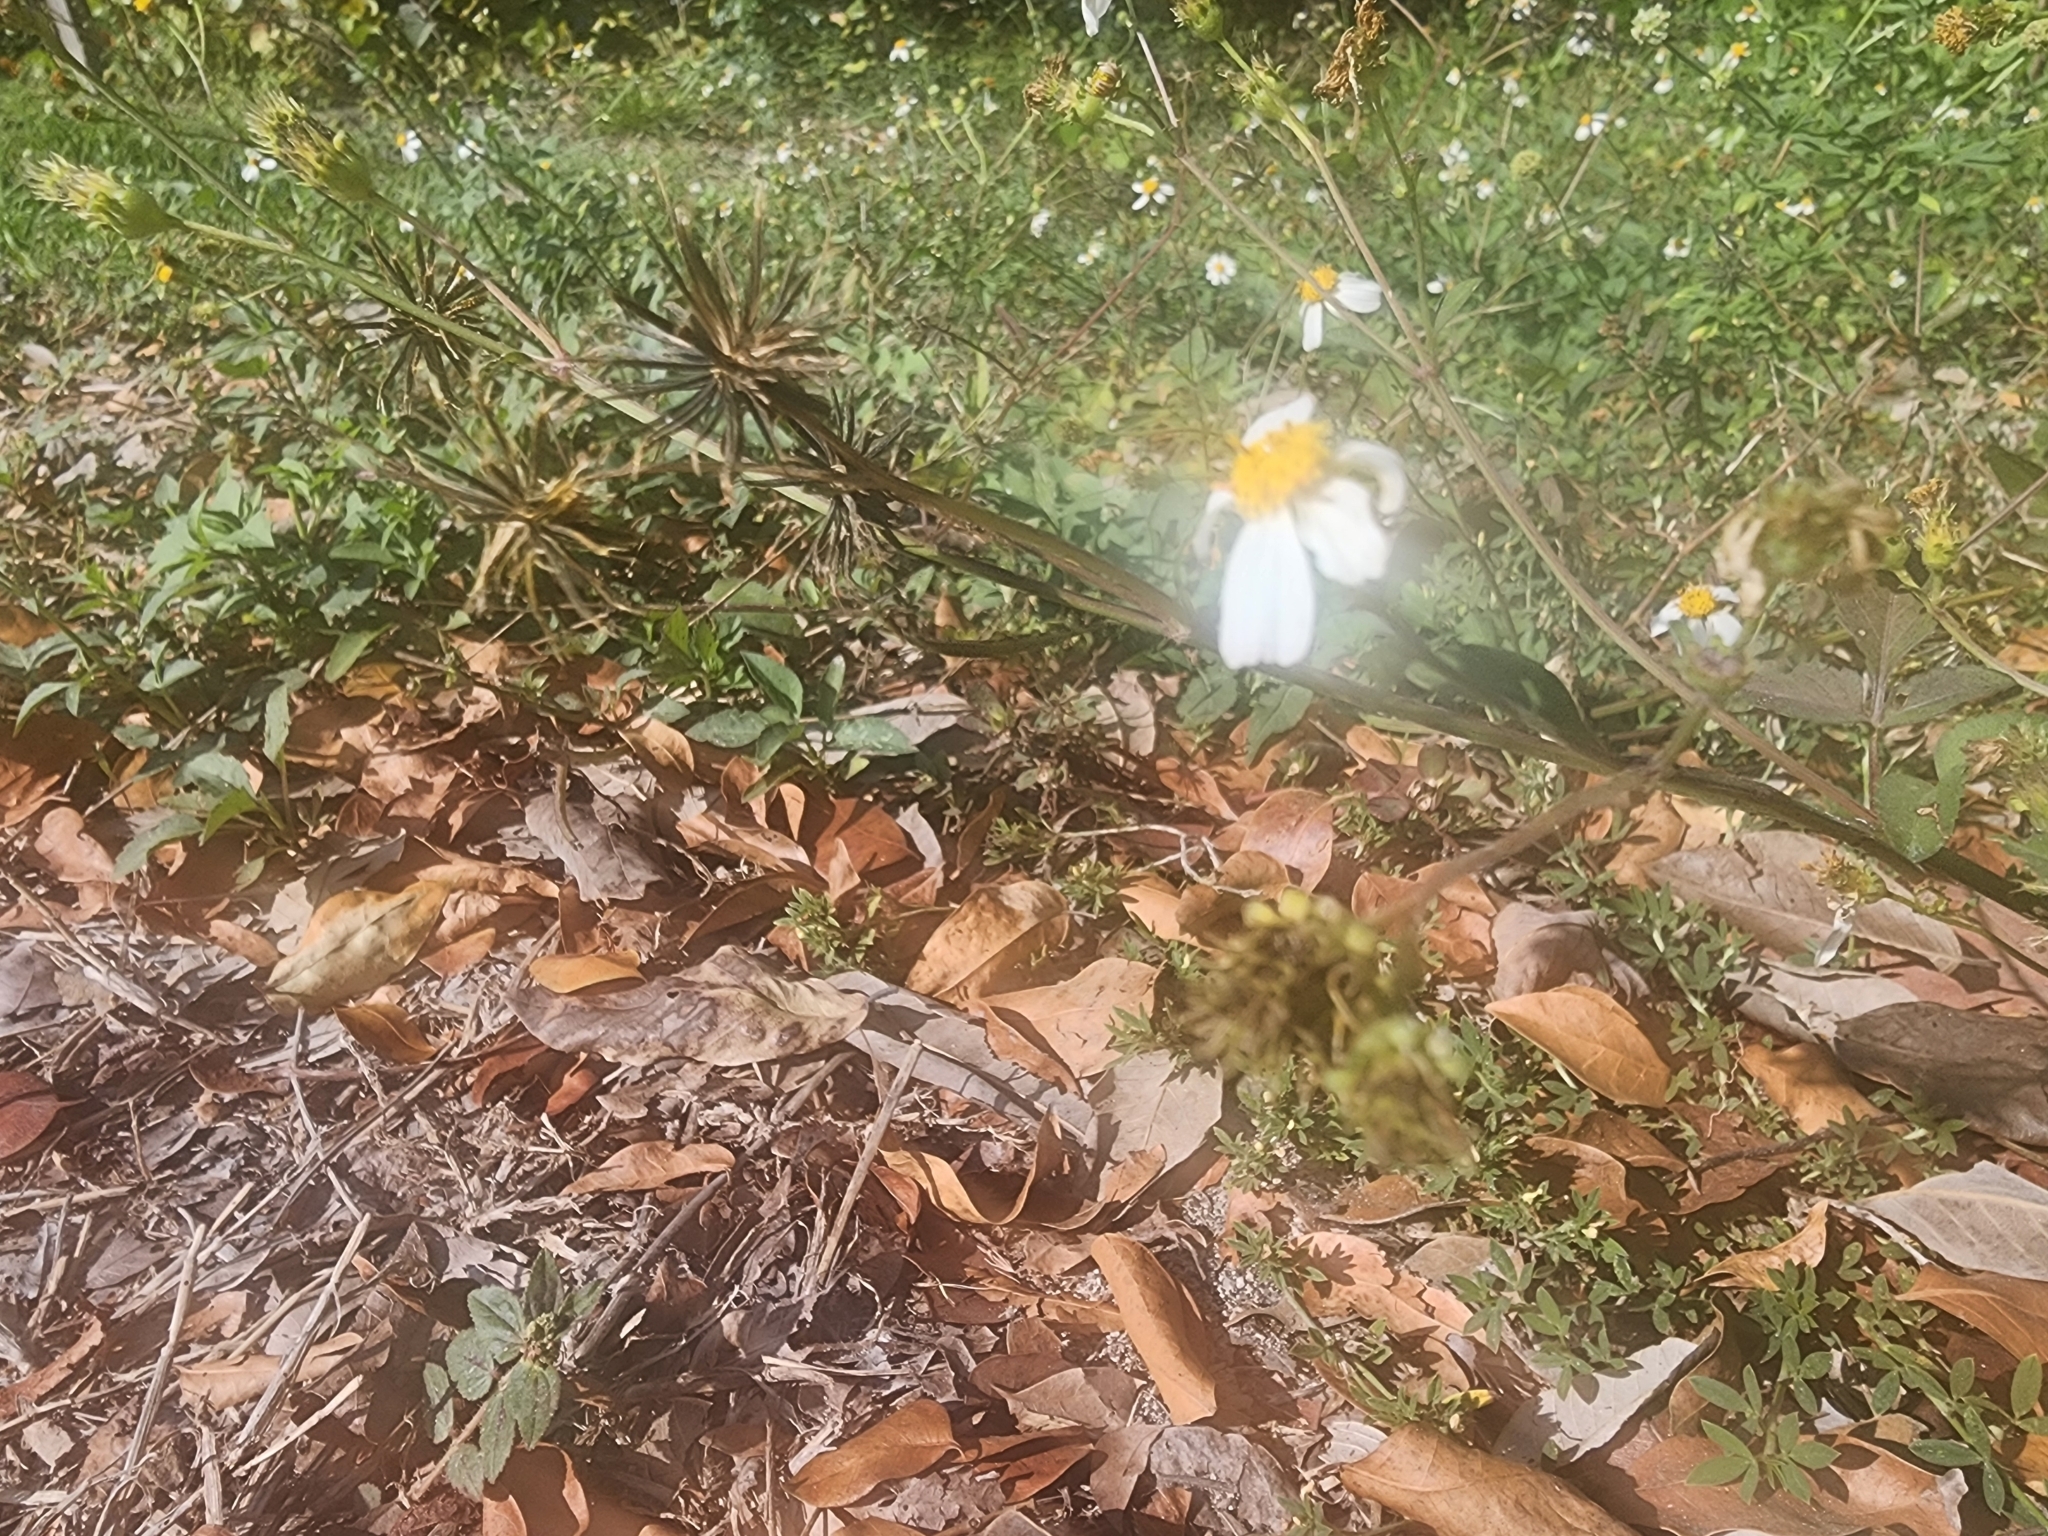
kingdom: Plantae
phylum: Tracheophyta
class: Magnoliopsida
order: Asterales
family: Asteraceae
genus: Bidens
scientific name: Bidens alba
